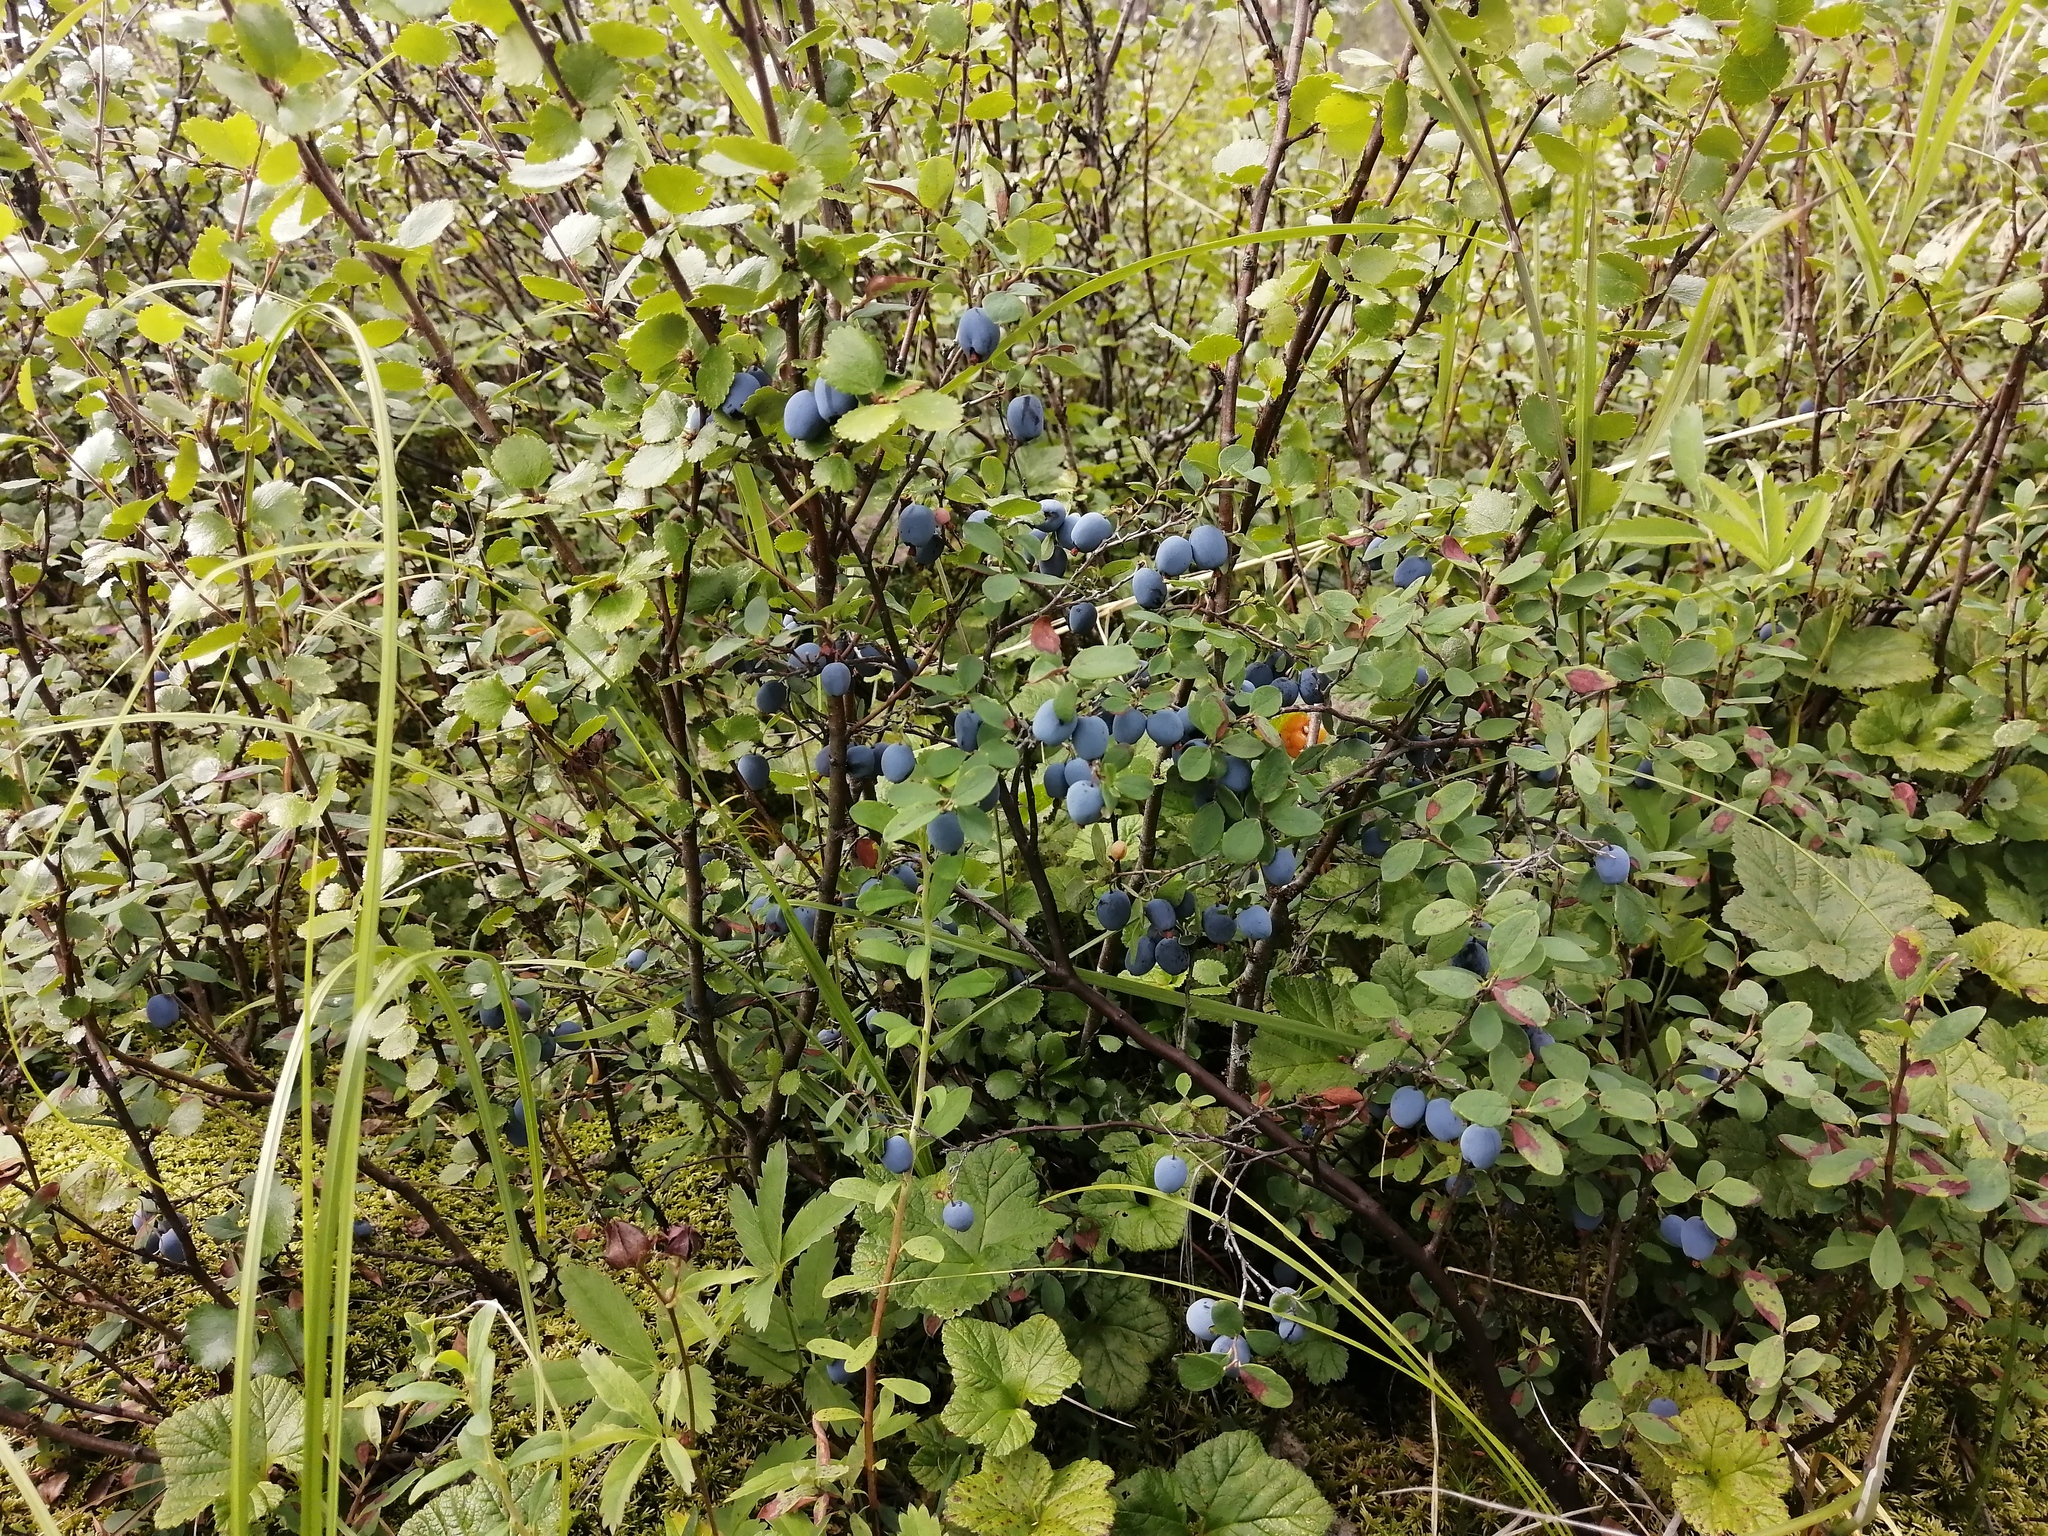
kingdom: Plantae
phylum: Tracheophyta
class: Magnoliopsida
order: Ericales
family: Ericaceae
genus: Vaccinium
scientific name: Vaccinium uliginosum
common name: Bog bilberry
